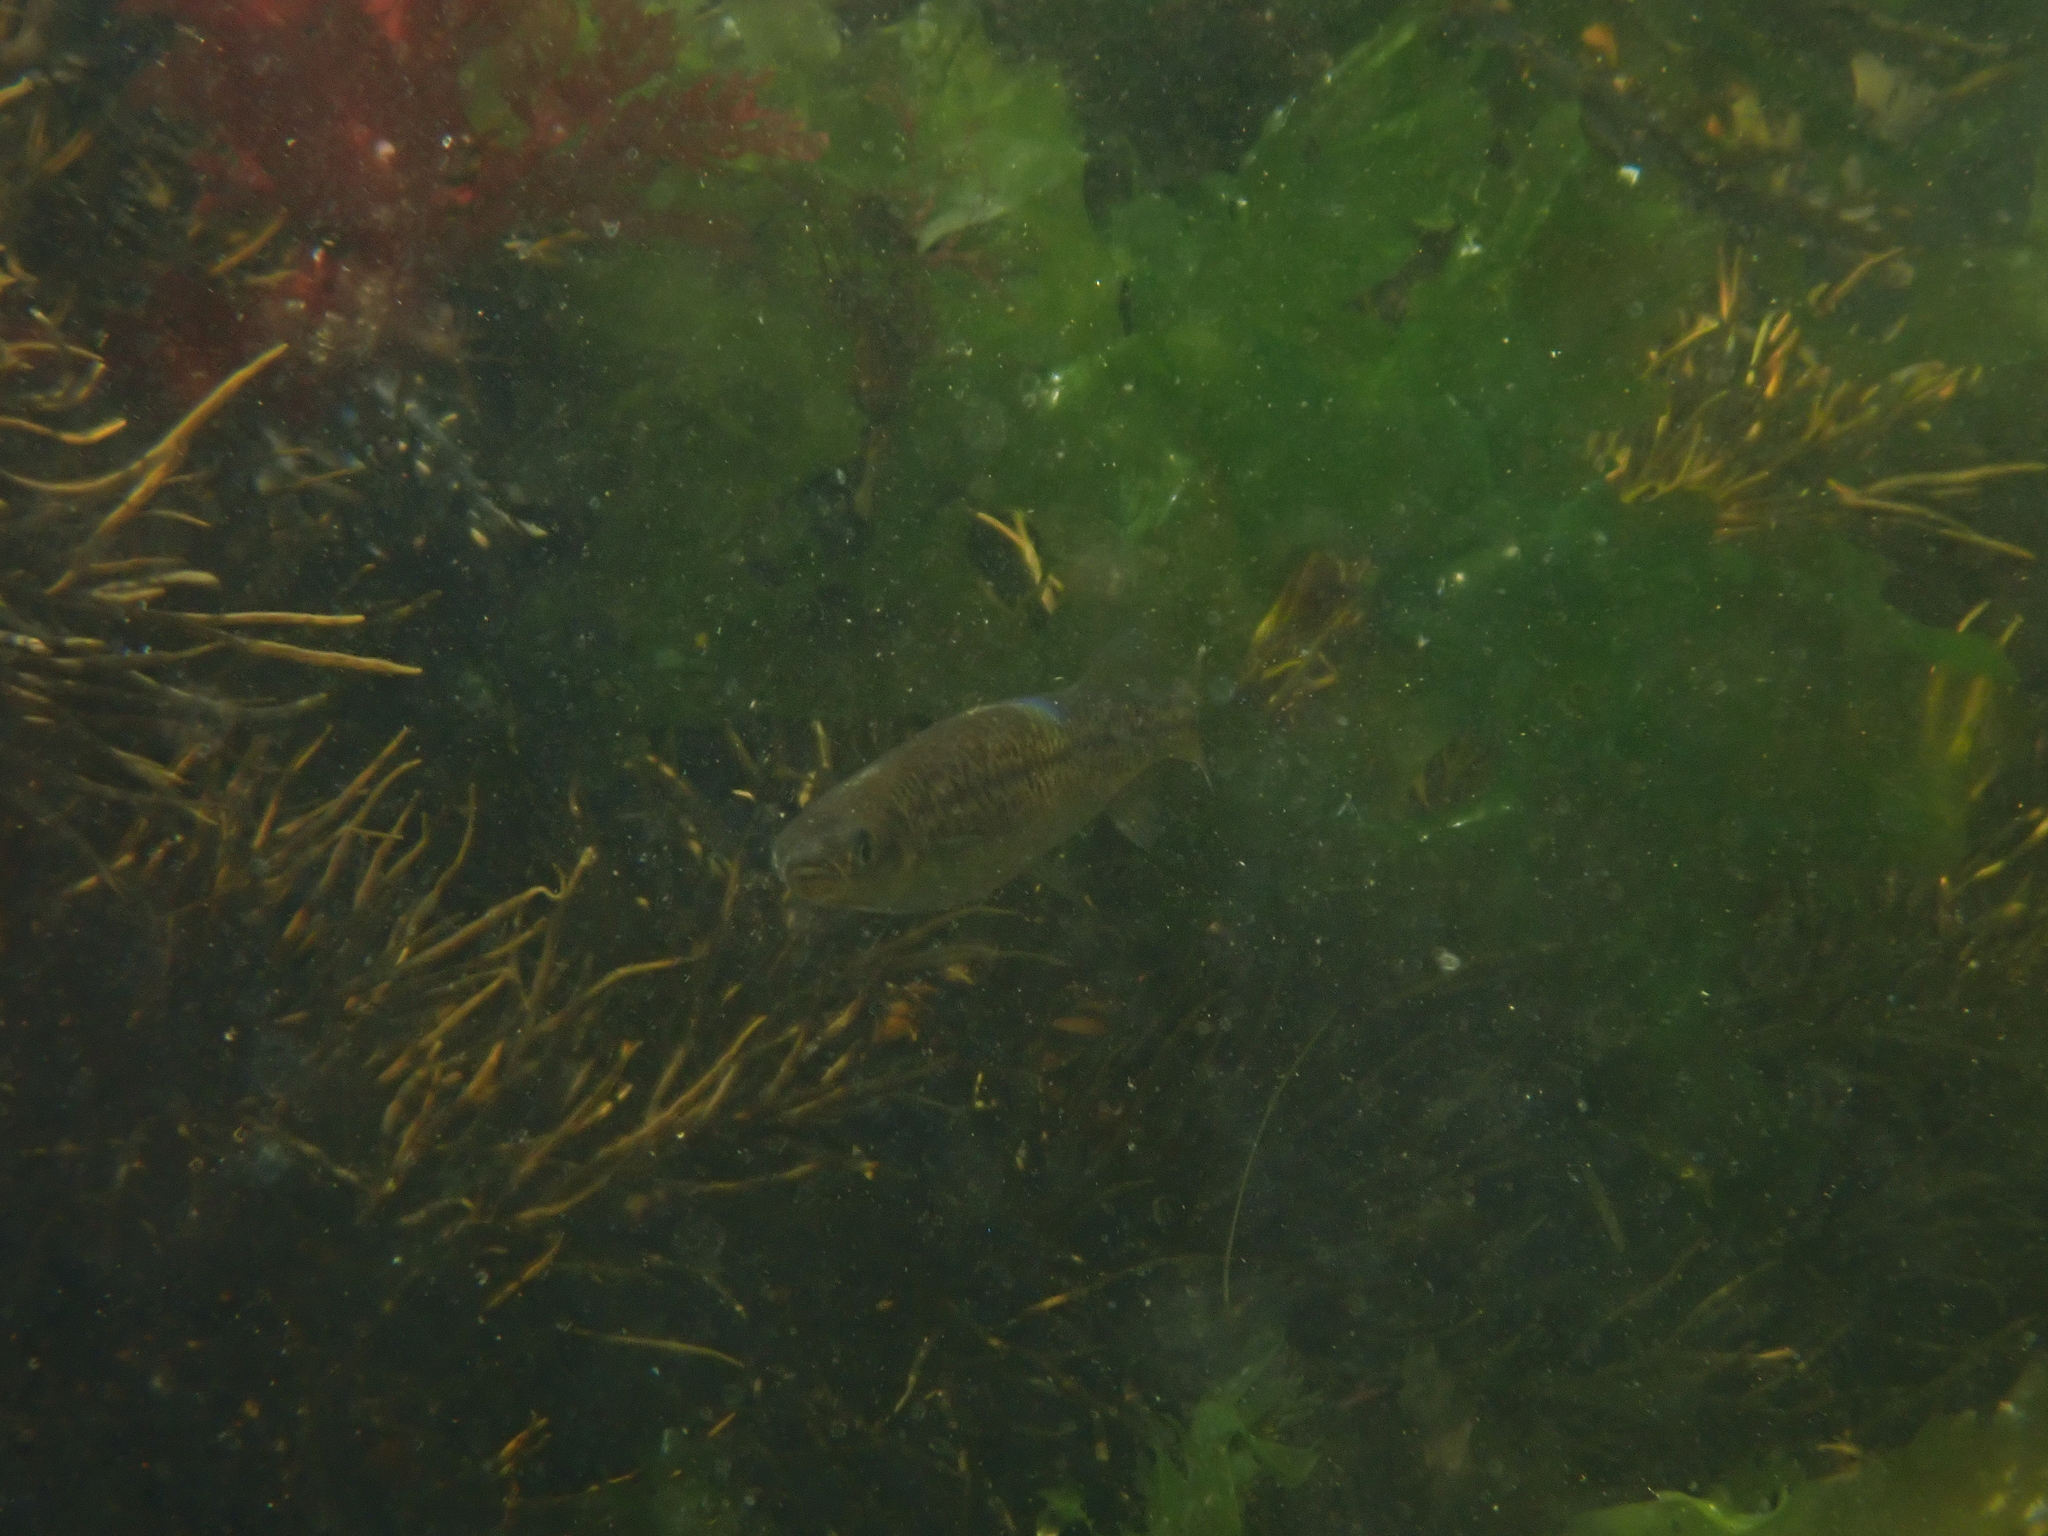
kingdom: Animalia
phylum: Chordata
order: Osmeriformes
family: Galaxiidae
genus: Galaxias
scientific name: Galaxias maculatus
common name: Common galaxias
